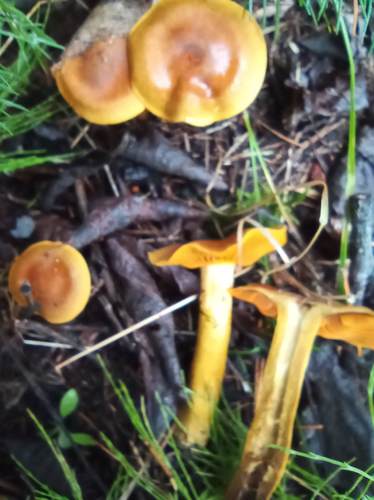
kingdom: Fungi
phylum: Basidiomycota
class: Agaricomycetes
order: Agaricales
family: Cortinariaceae
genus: Cortinarius
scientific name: Cortinarius cinnamomeus
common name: Cinnamon webcap
